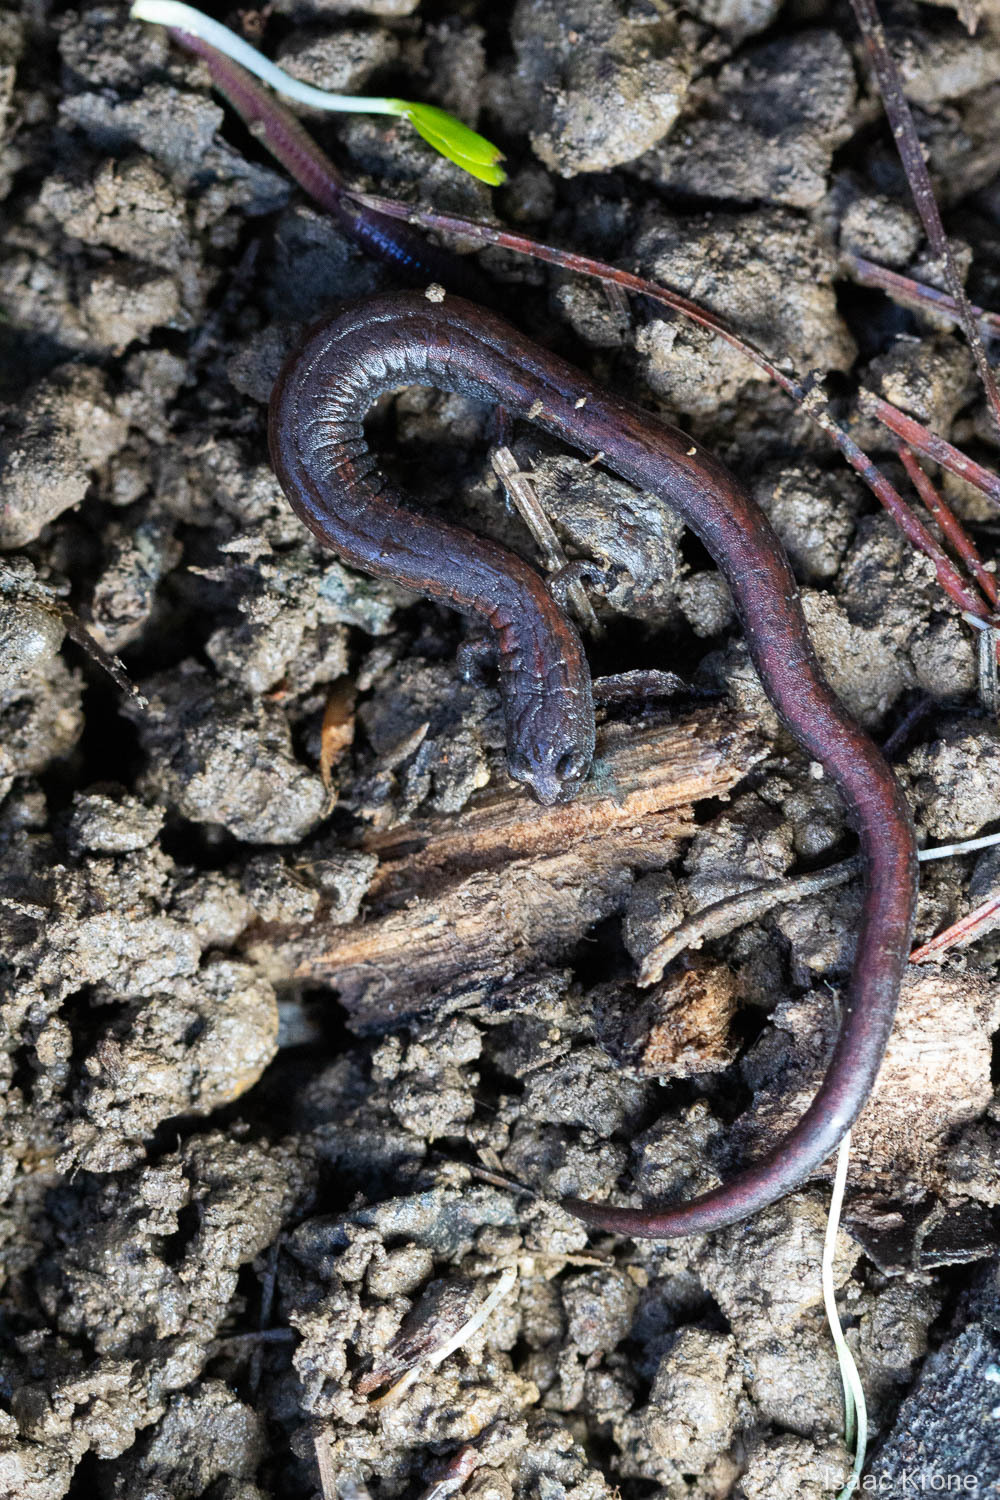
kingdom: Animalia
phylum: Chordata
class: Amphibia
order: Caudata
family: Plethodontidae
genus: Batrachoseps
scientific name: Batrachoseps attenuatus
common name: California slender salamander
